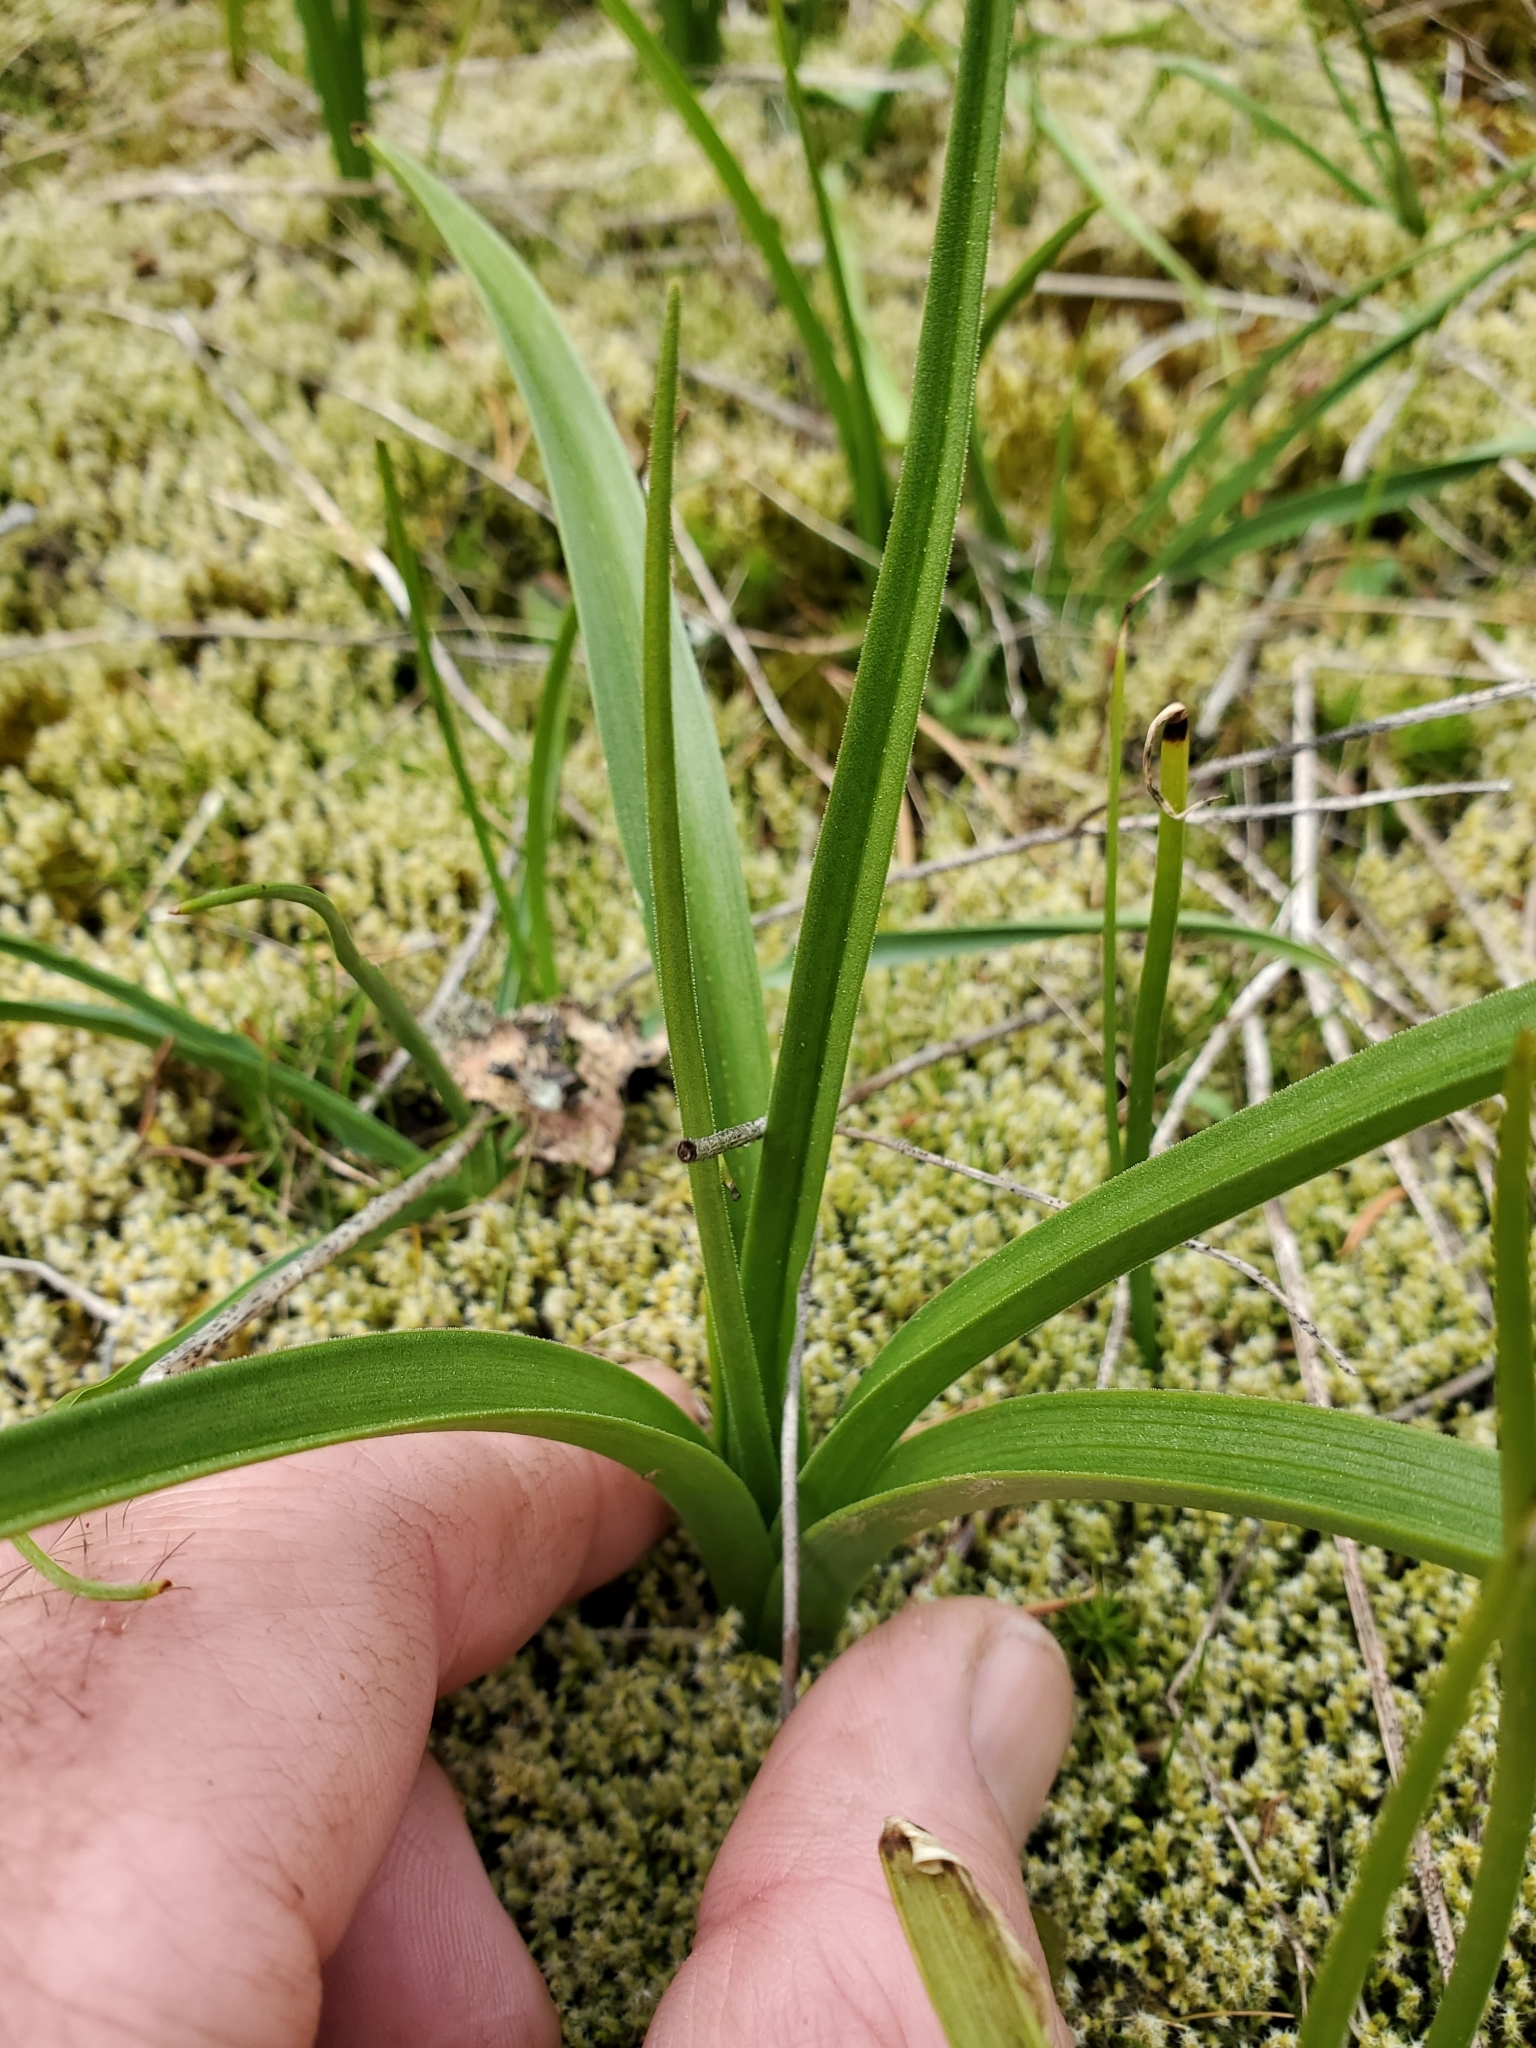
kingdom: Plantae
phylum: Tracheophyta
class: Liliopsida
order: Liliales
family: Melanthiaceae
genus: Toxicoscordion
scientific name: Toxicoscordion venenosum
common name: Meadow death camas
